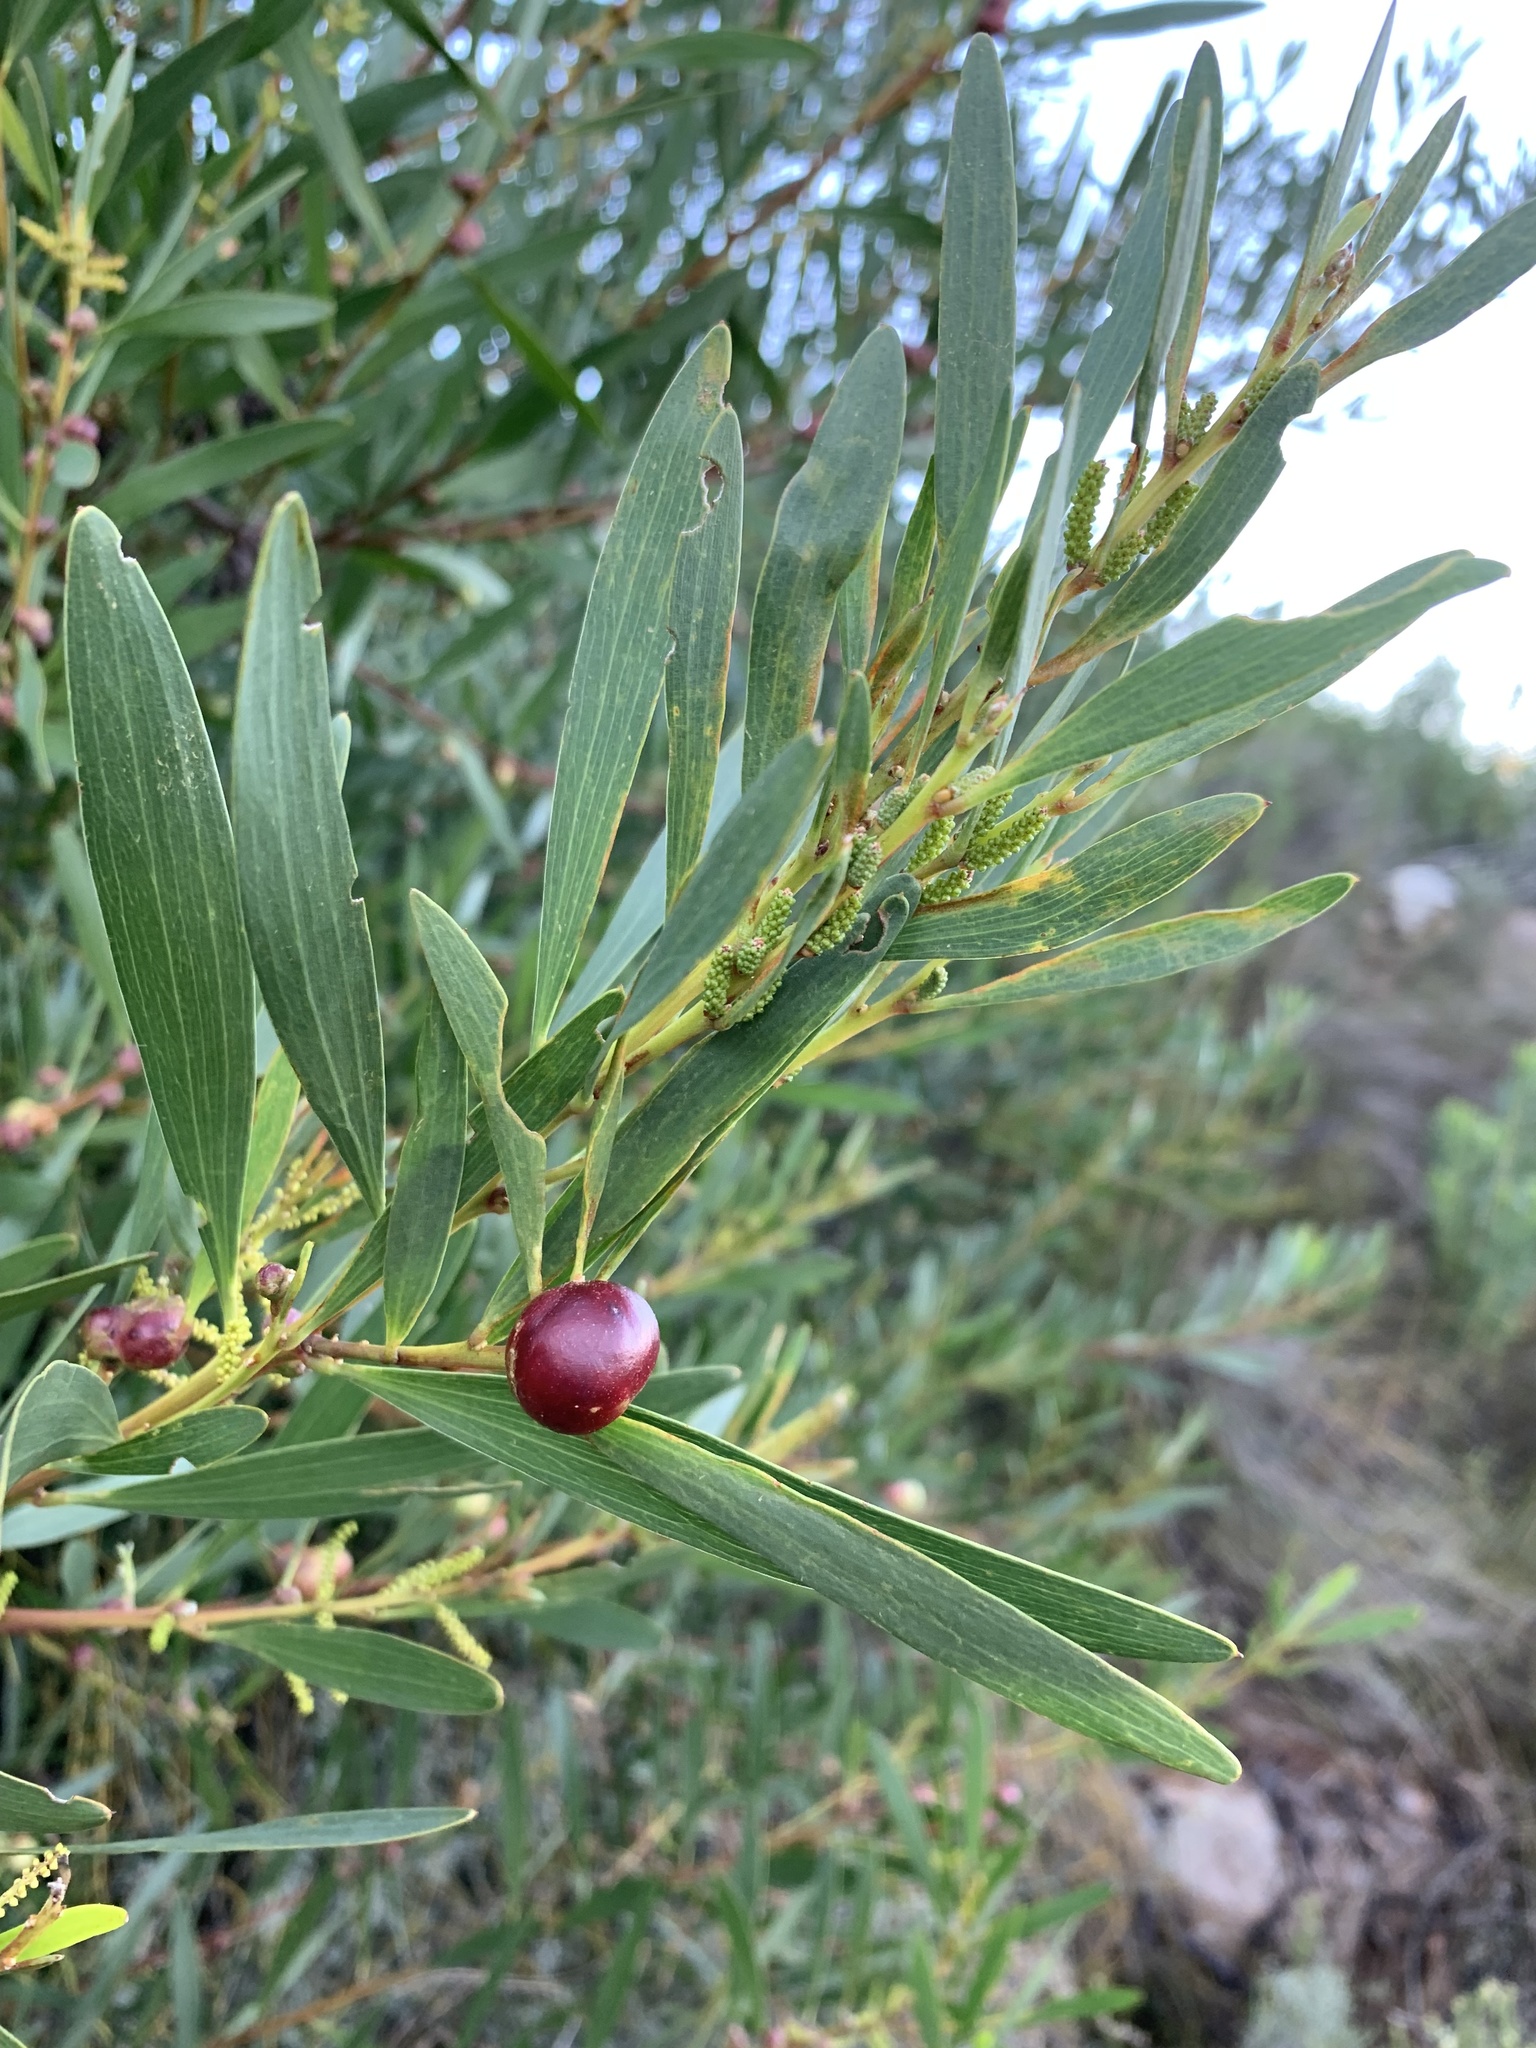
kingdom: Plantae
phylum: Tracheophyta
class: Magnoliopsida
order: Fabales
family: Fabaceae
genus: Acacia
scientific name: Acacia longifolia
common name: Sydney golden wattle
